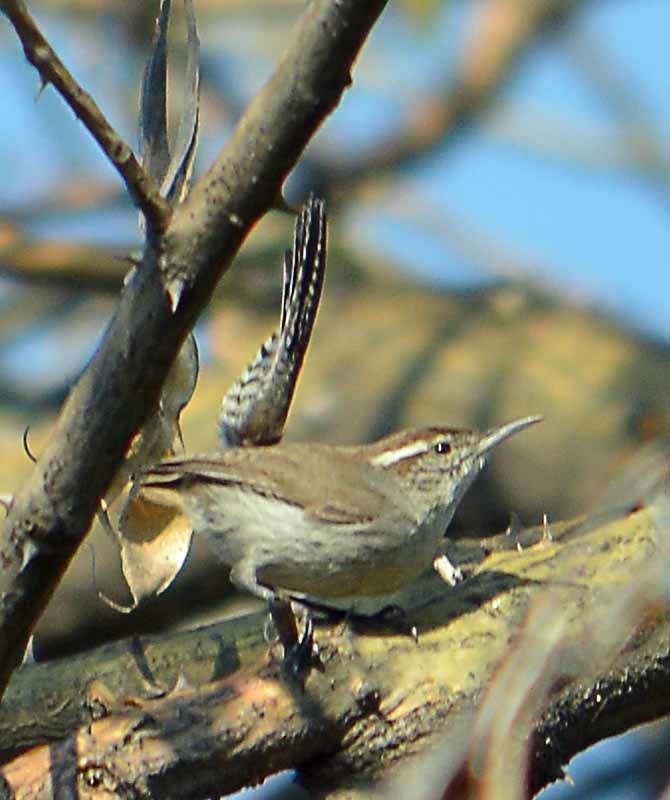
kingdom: Animalia
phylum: Chordata
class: Aves
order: Passeriformes
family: Troglodytidae
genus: Thryomanes
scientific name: Thryomanes bewickii
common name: Bewick's wren
